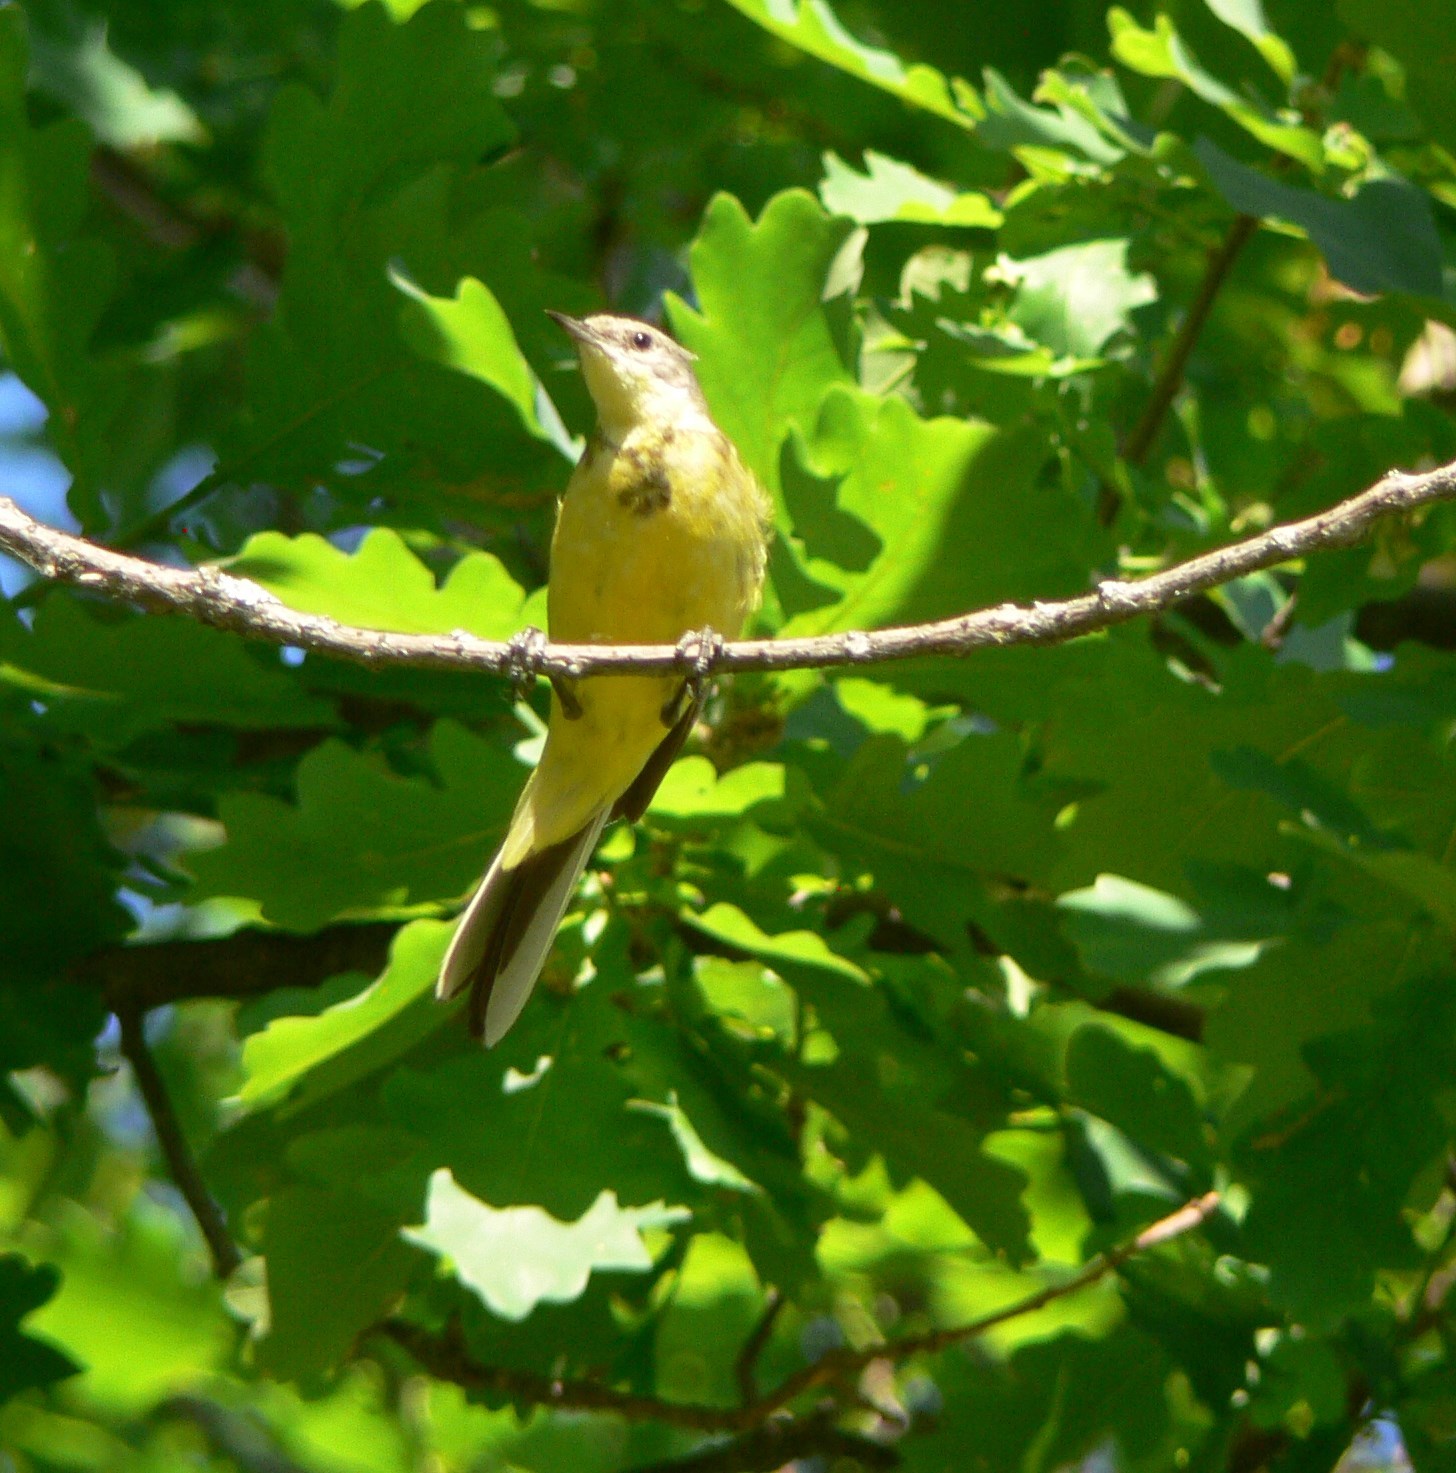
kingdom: Animalia
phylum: Chordata
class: Aves
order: Passeriformes
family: Motacillidae
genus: Motacilla
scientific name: Motacilla citreola
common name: Citrine wagtail
